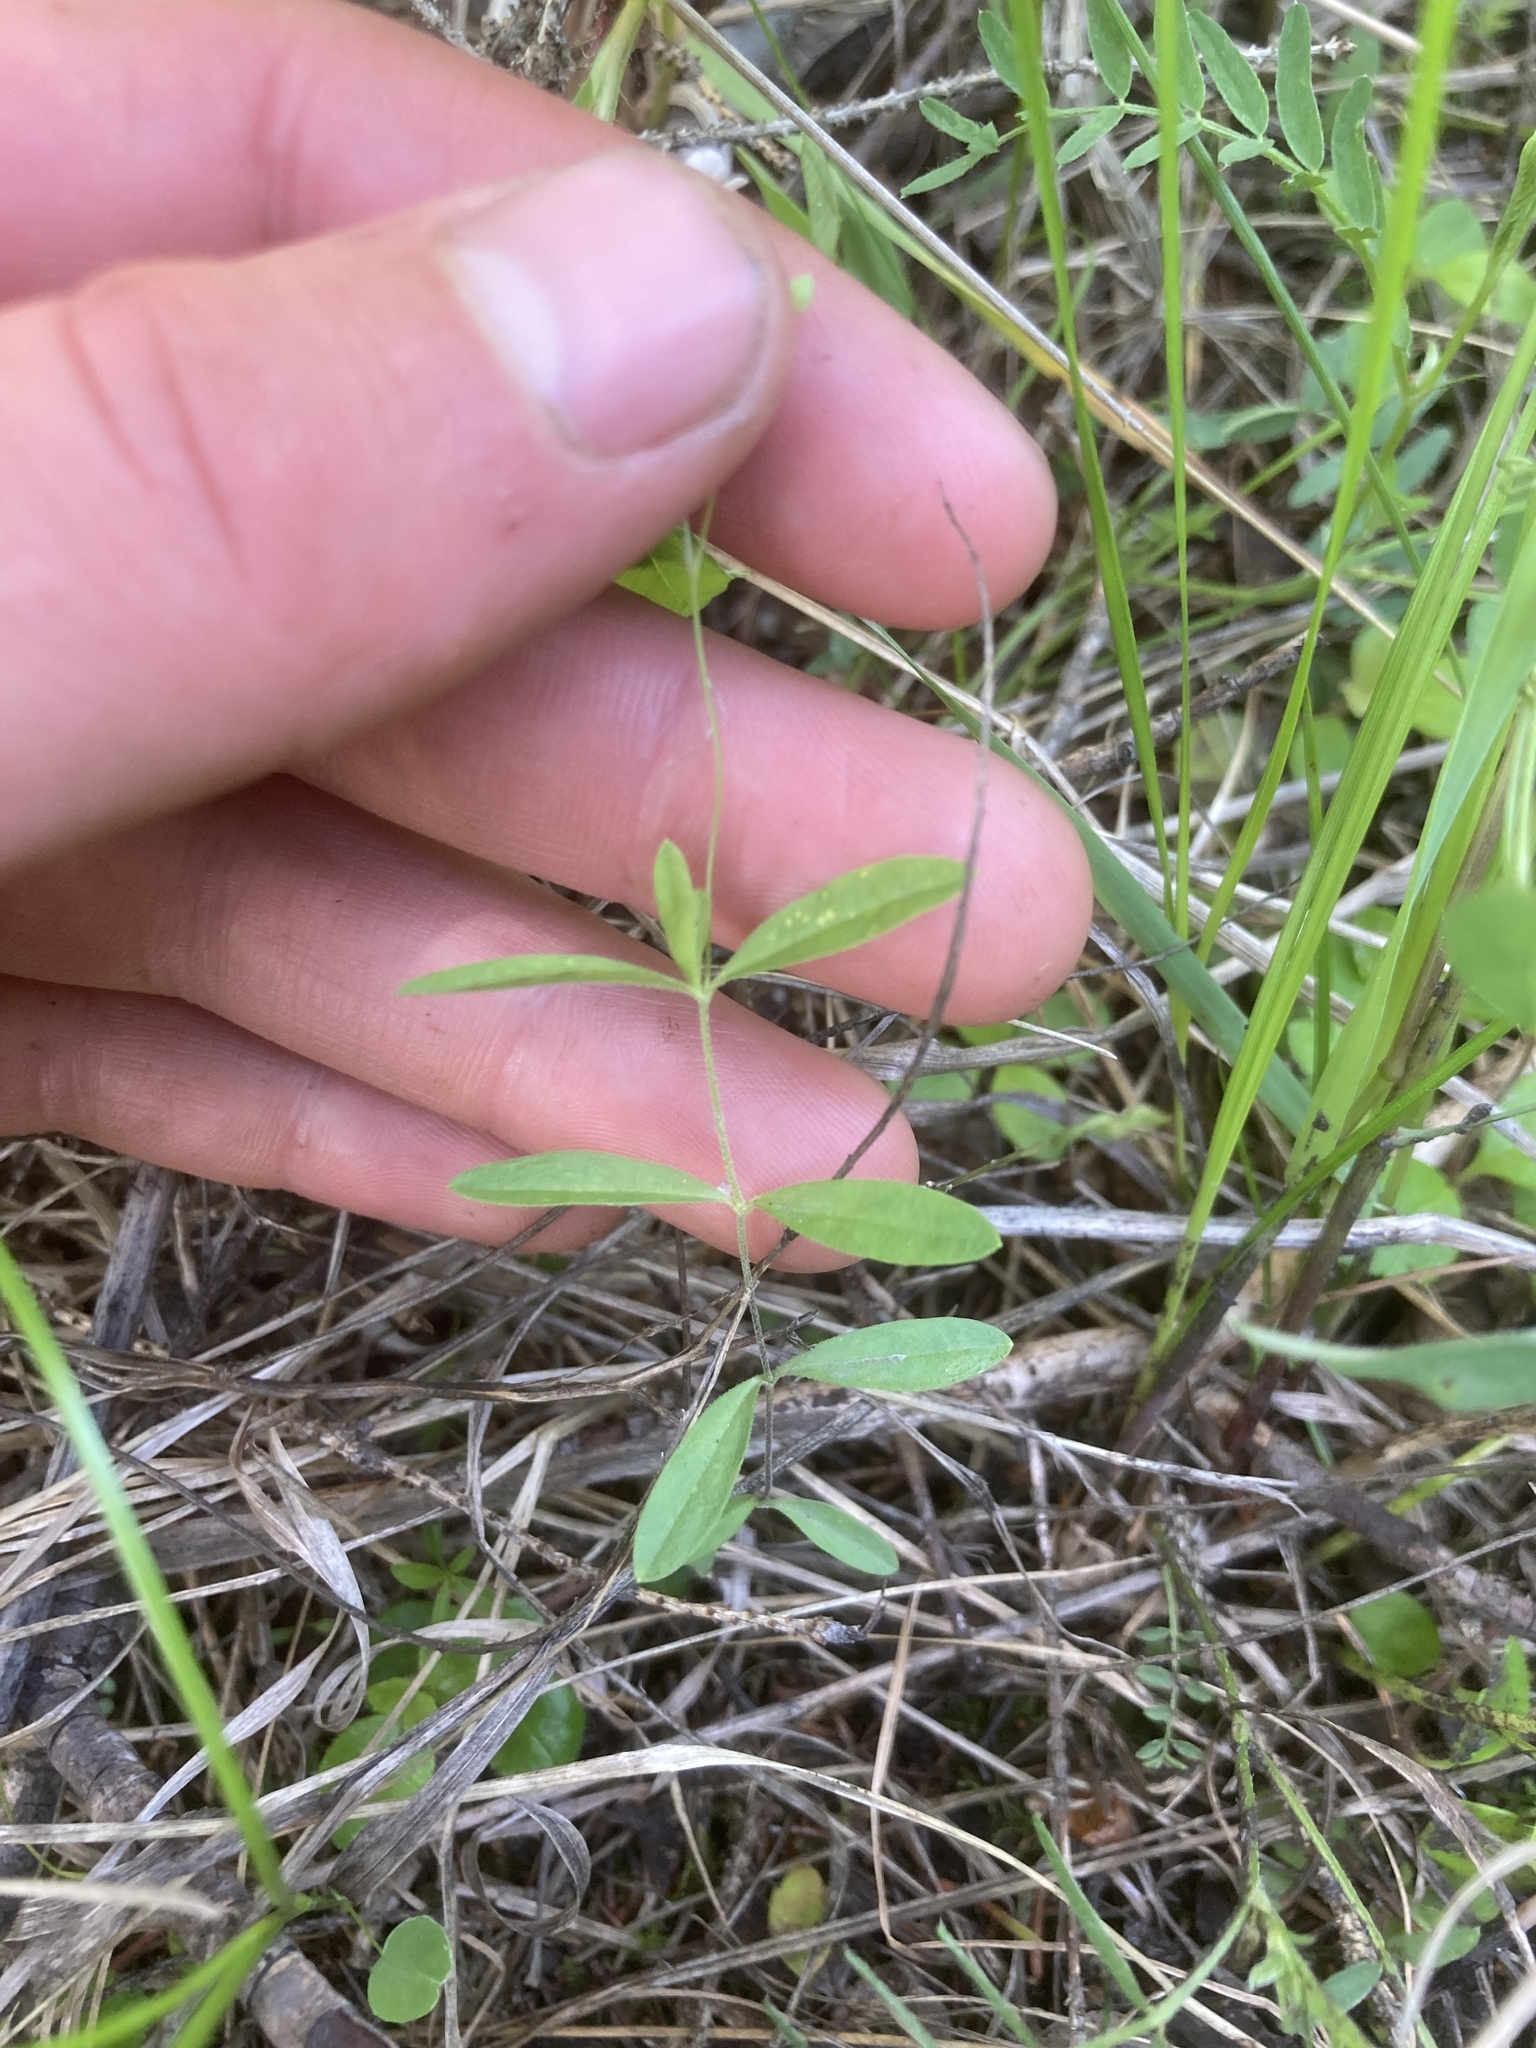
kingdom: Plantae
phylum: Tracheophyta
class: Magnoliopsida
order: Caryophyllales
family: Caryophyllaceae
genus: Moehringia
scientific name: Moehringia lateriflora
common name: Blunt-leaved sandwort
